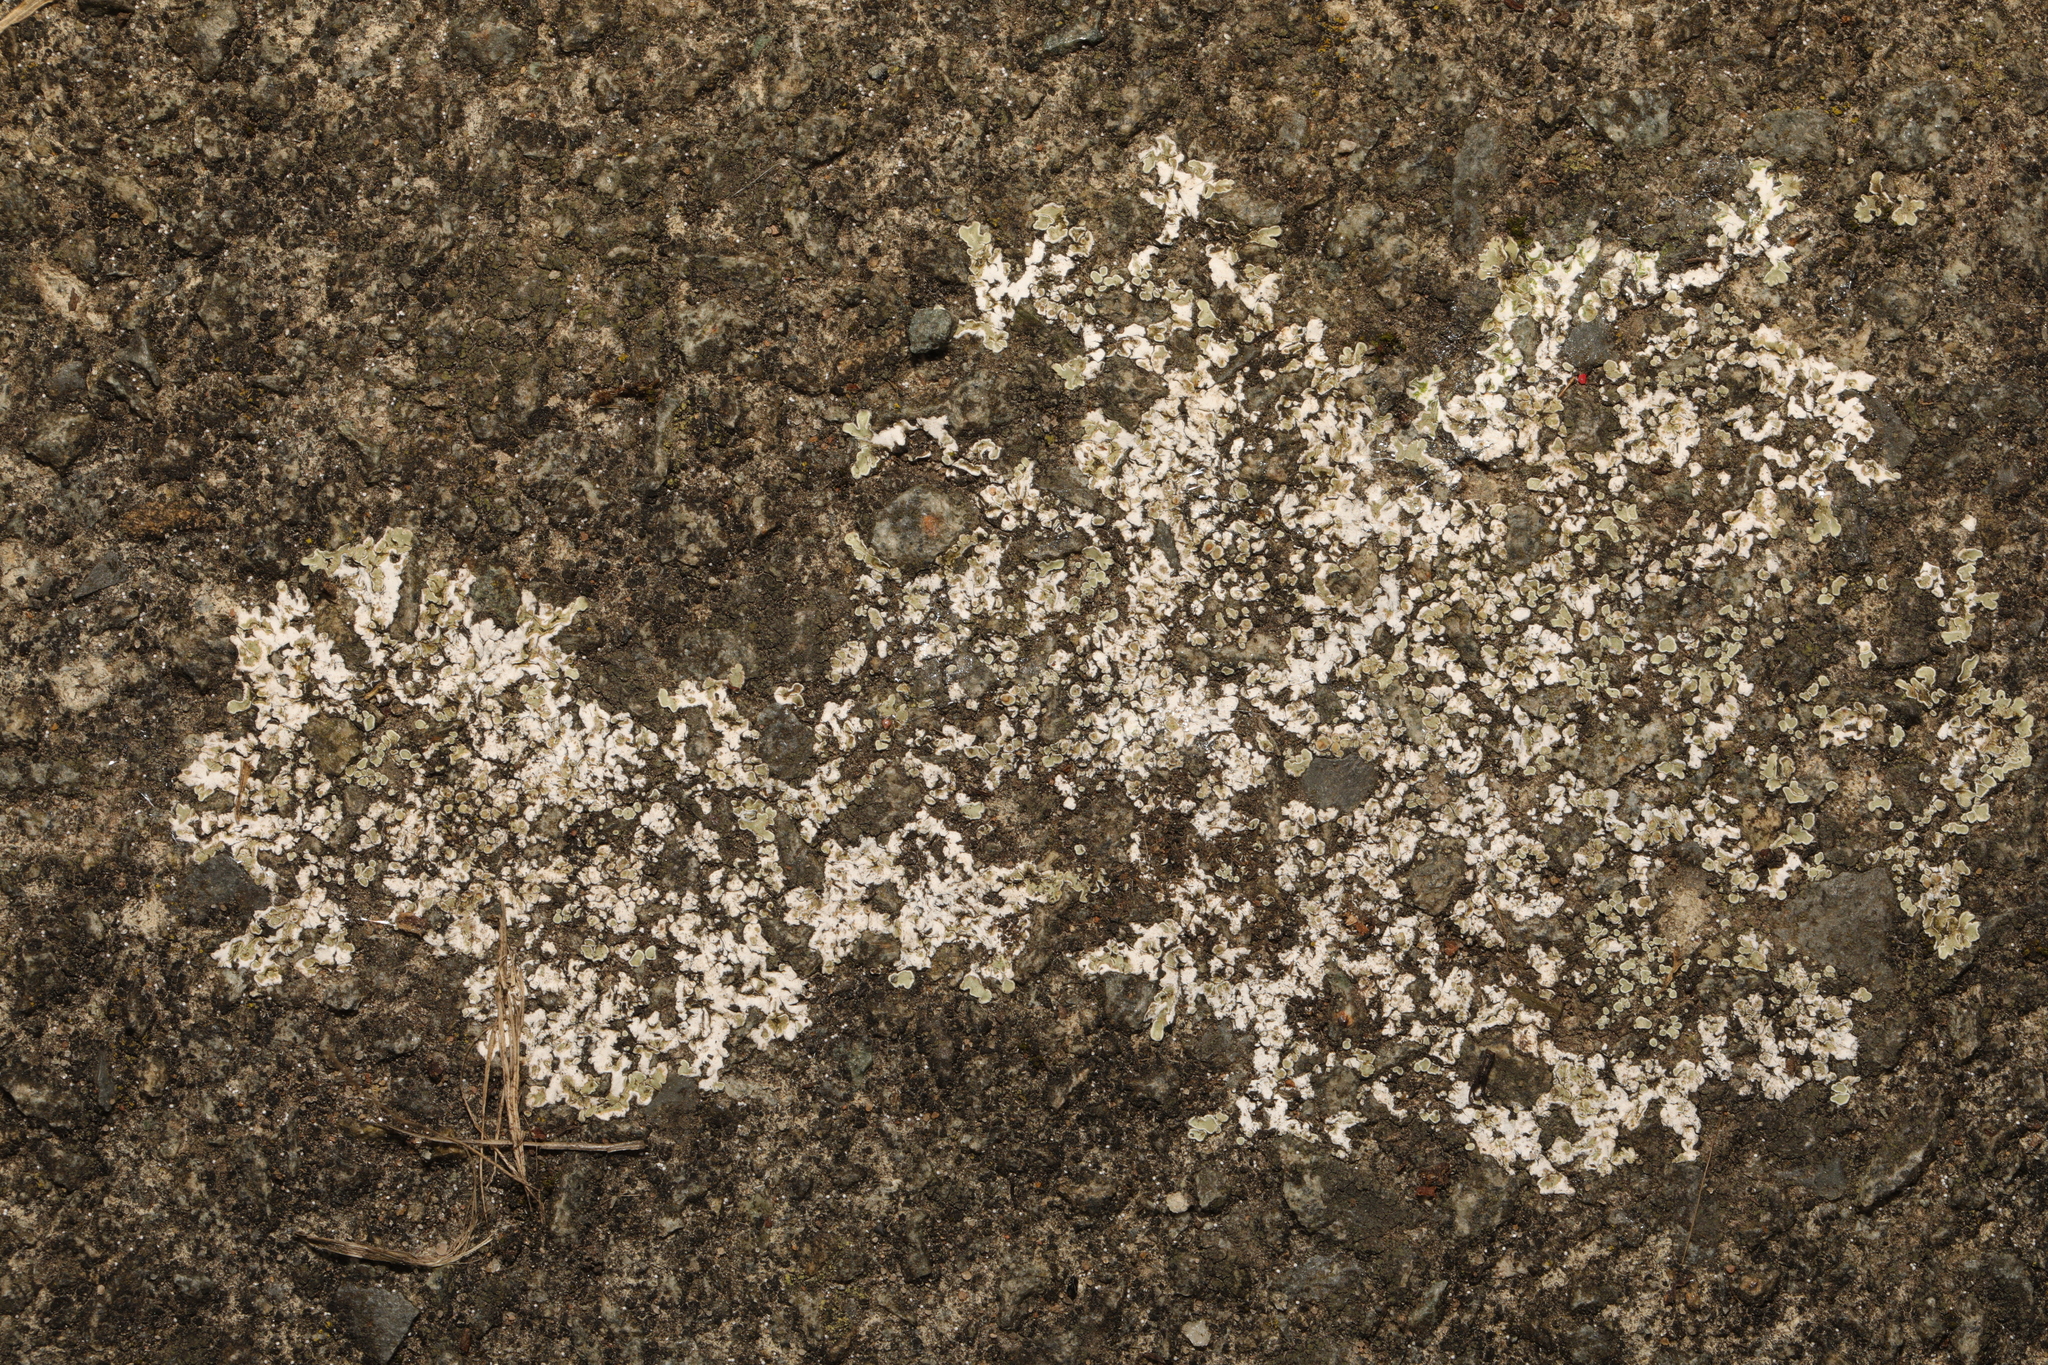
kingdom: Fungi
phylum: Ascomycota
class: Lecanoromycetes
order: Lecanorales
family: Lecanoraceae
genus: Protoparmeliopsis
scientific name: Protoparmeliopsis muralis
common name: Stonewall rim lichen
